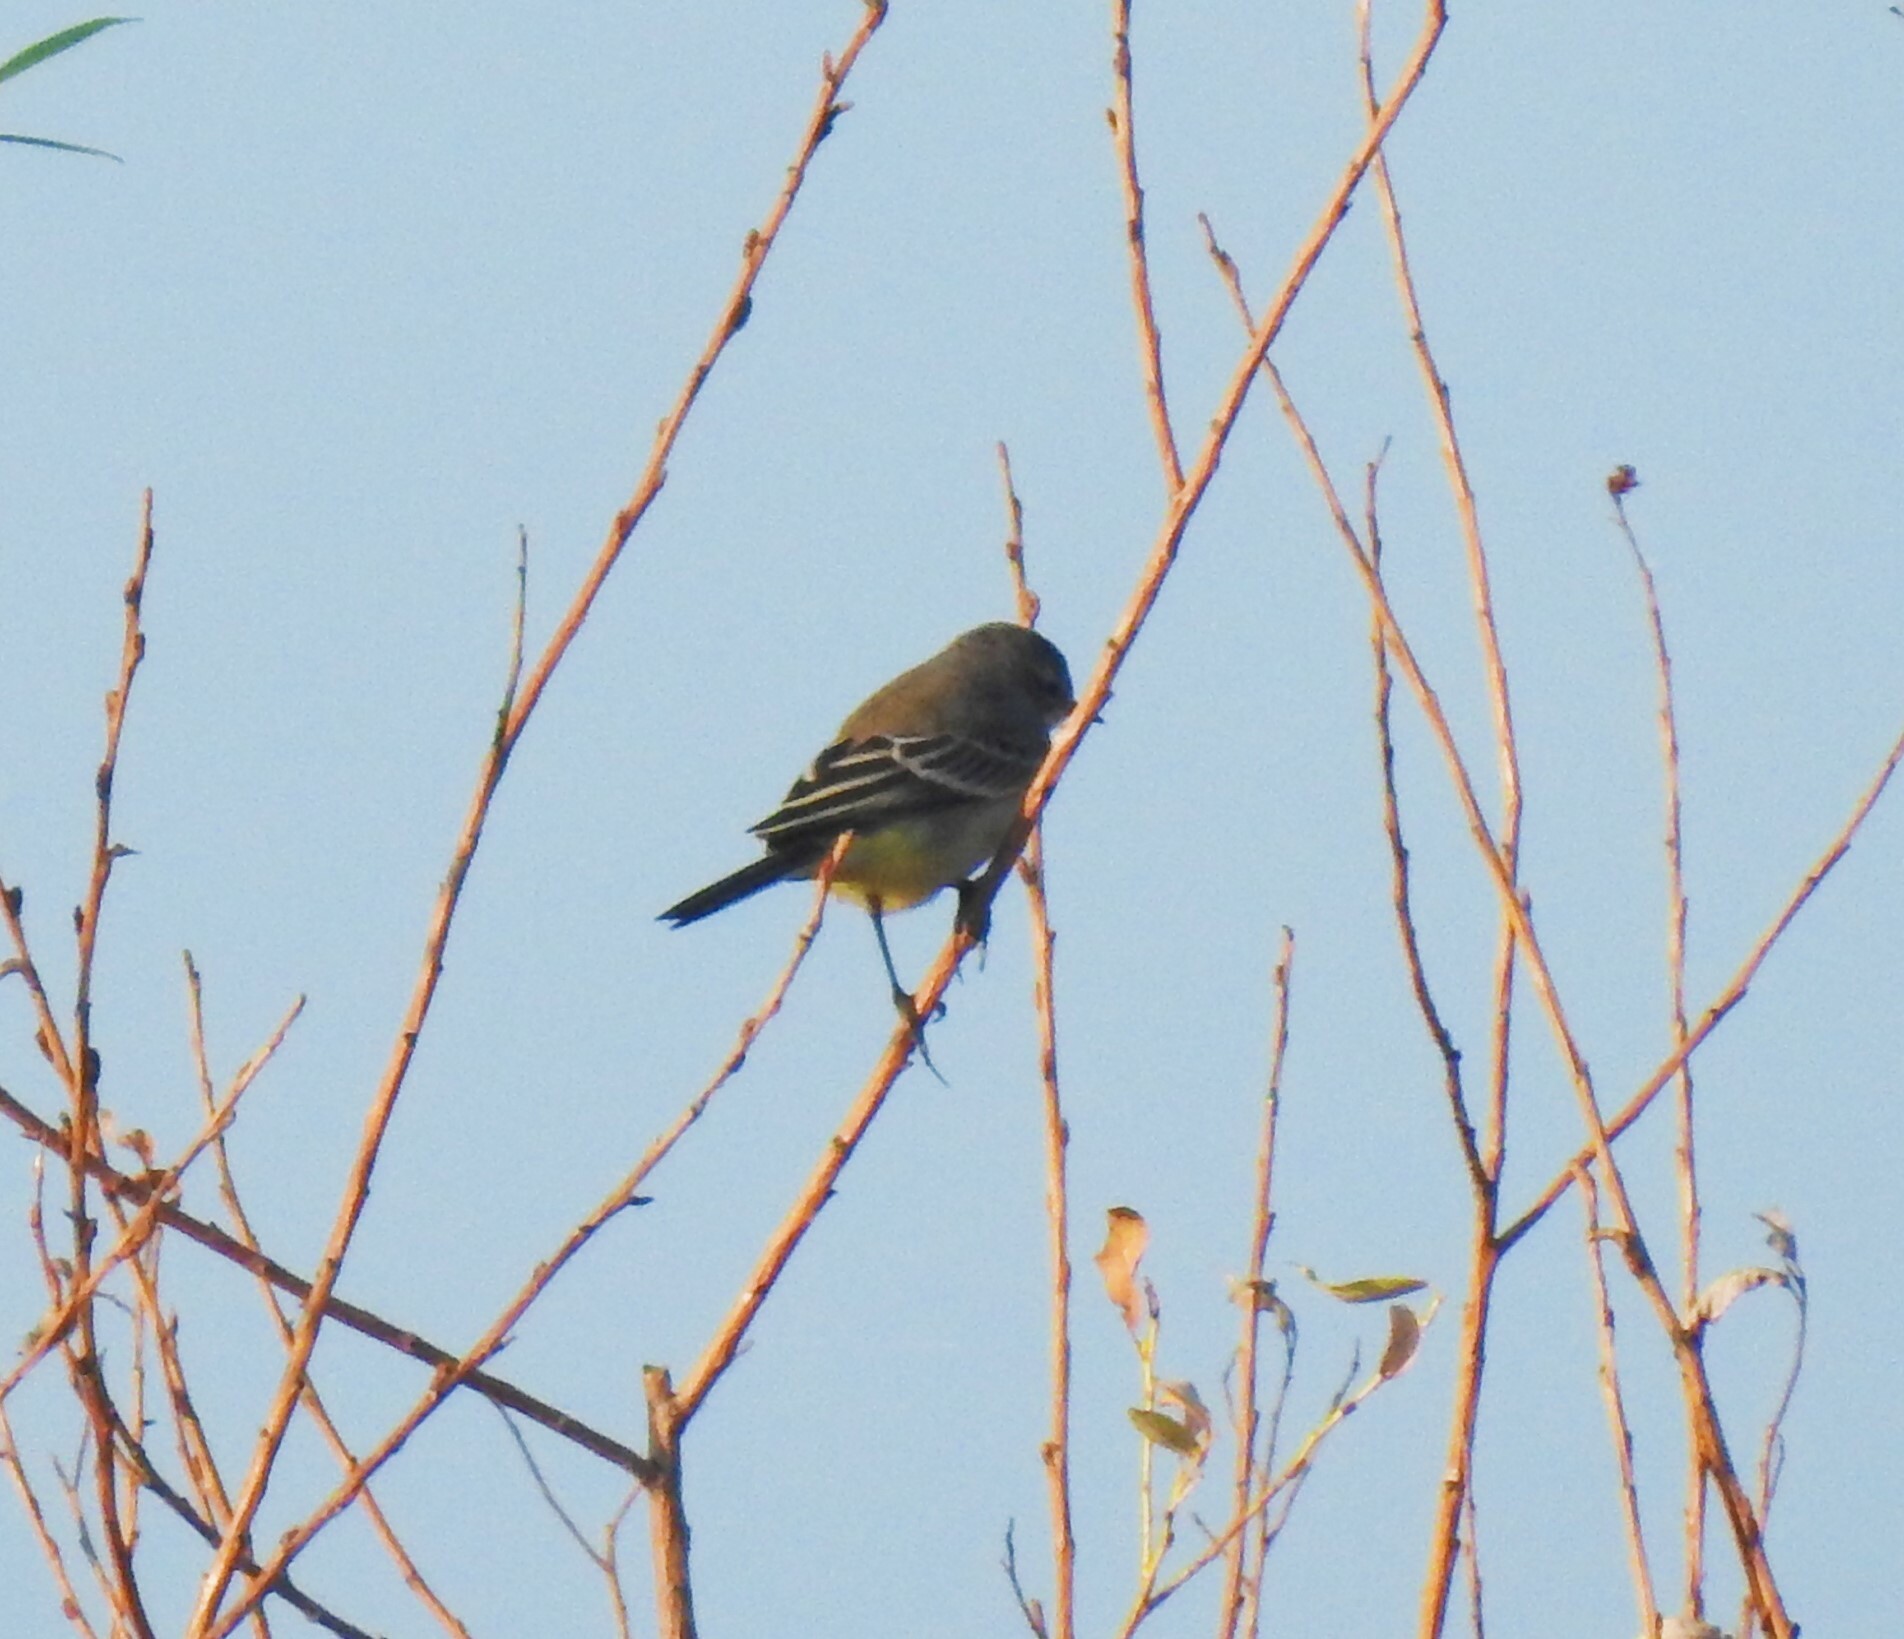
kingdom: Animalia
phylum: Chordata
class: Aves
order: Passeriformes
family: Motacillidae
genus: Motacilla
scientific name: Motacilla flava
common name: Western yellow wagtail
